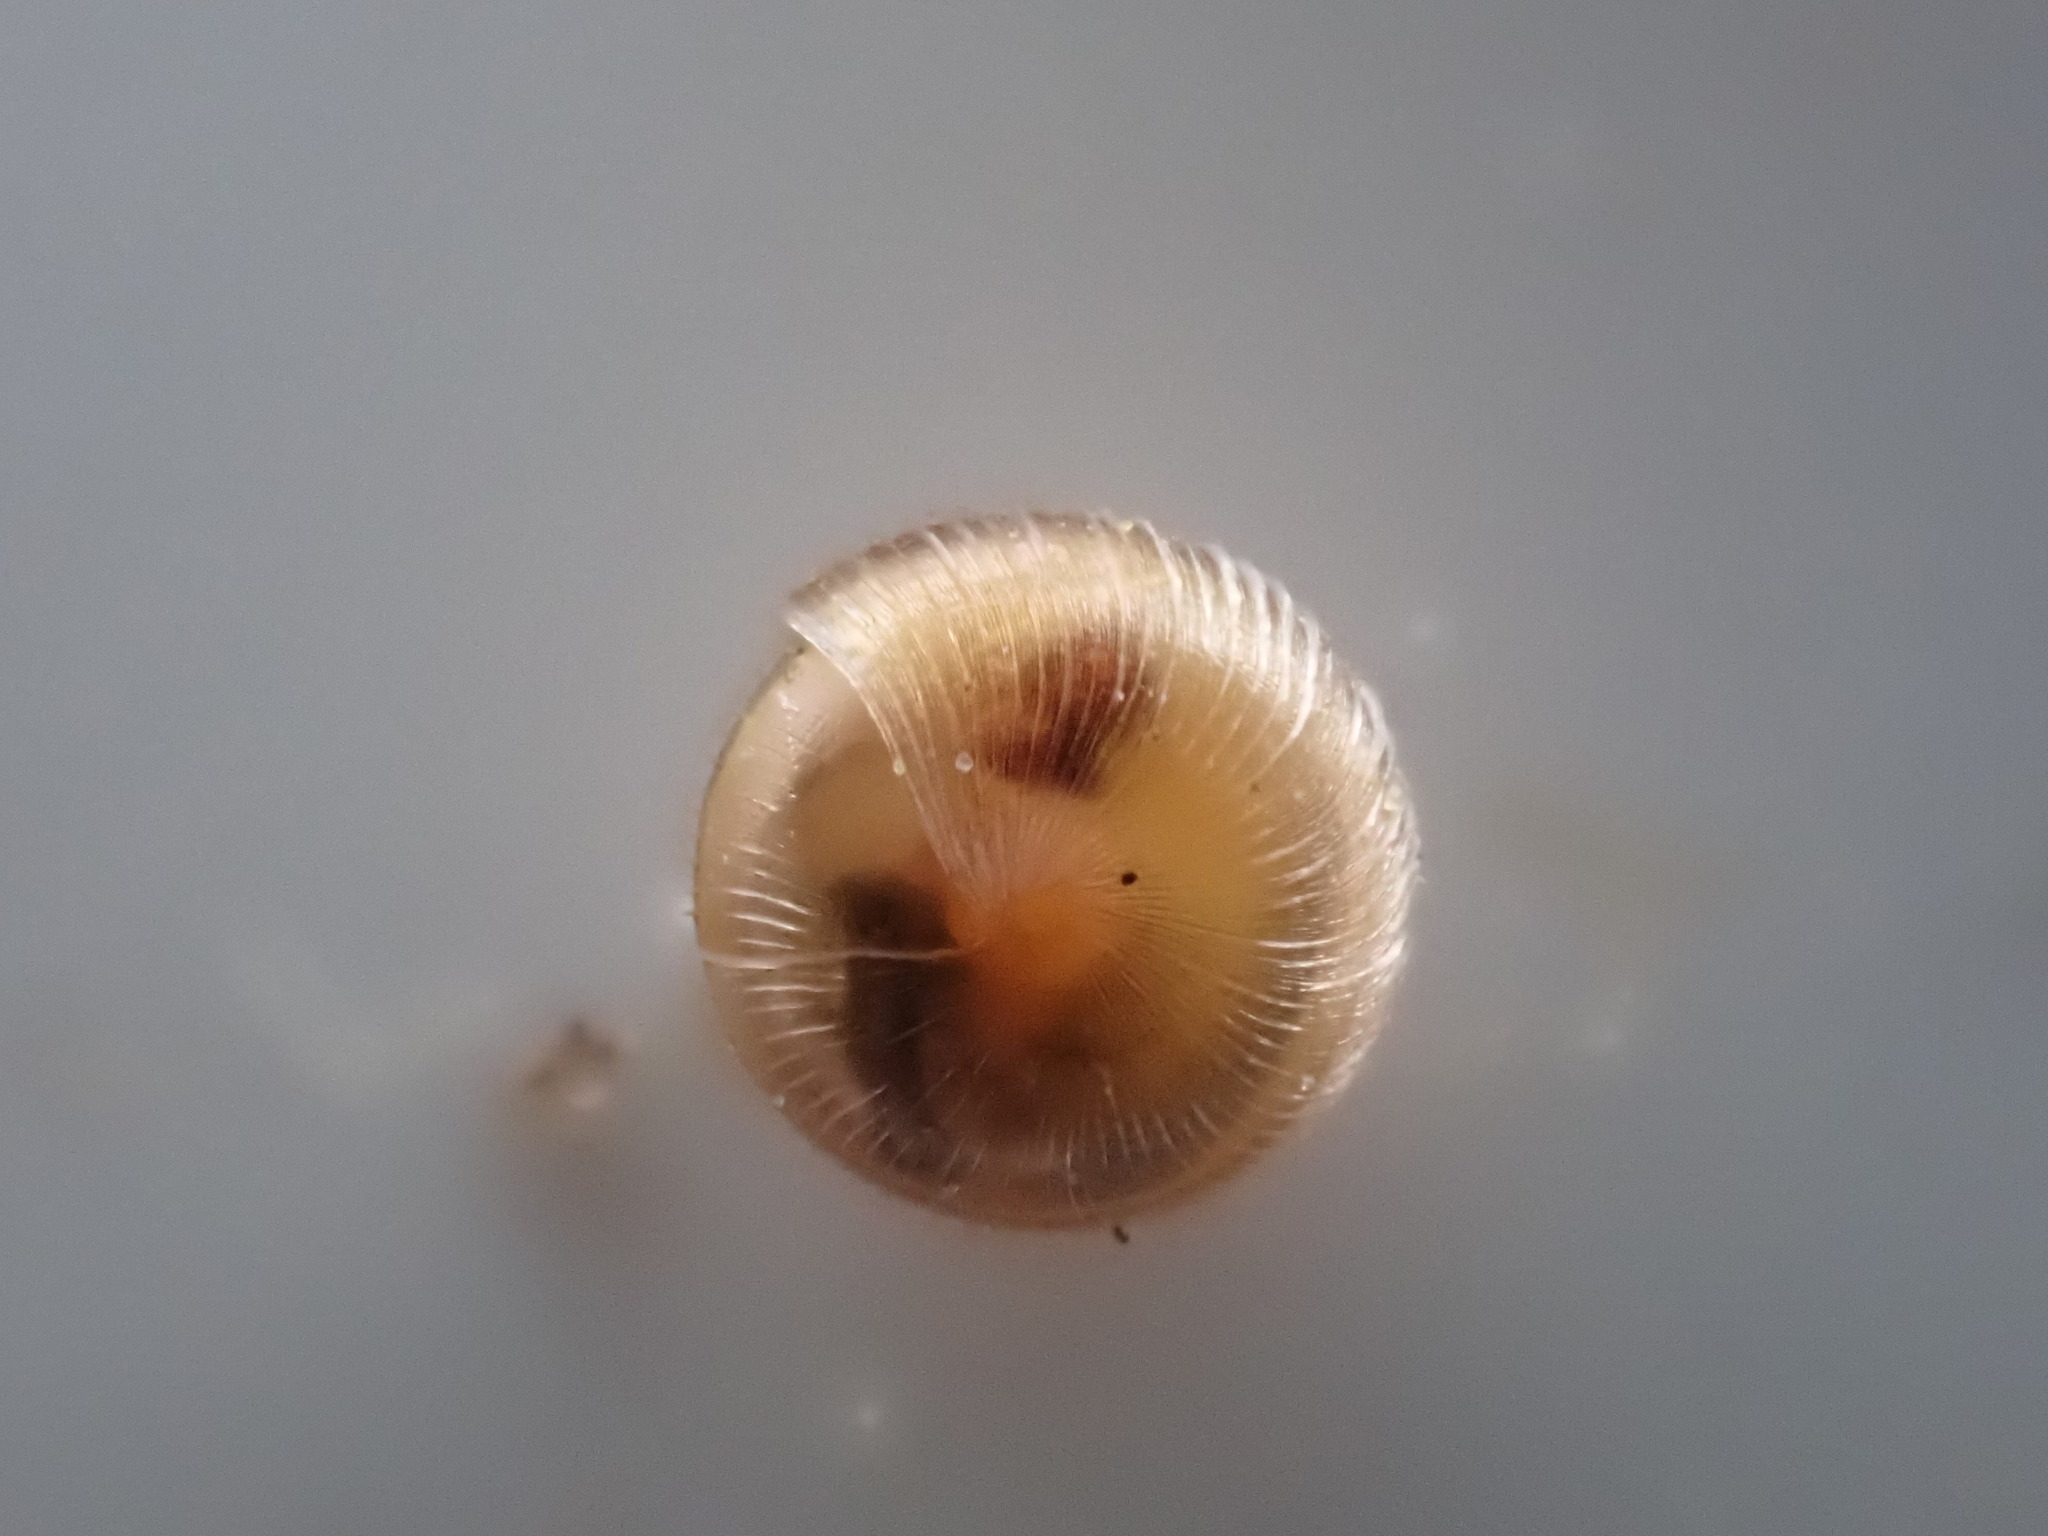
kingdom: Animalia
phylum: Mollusca
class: Gastropoda
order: Stylommatophora
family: Valloniidae
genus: Spermodea
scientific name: Spermodea lamellata
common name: Plaited snail
